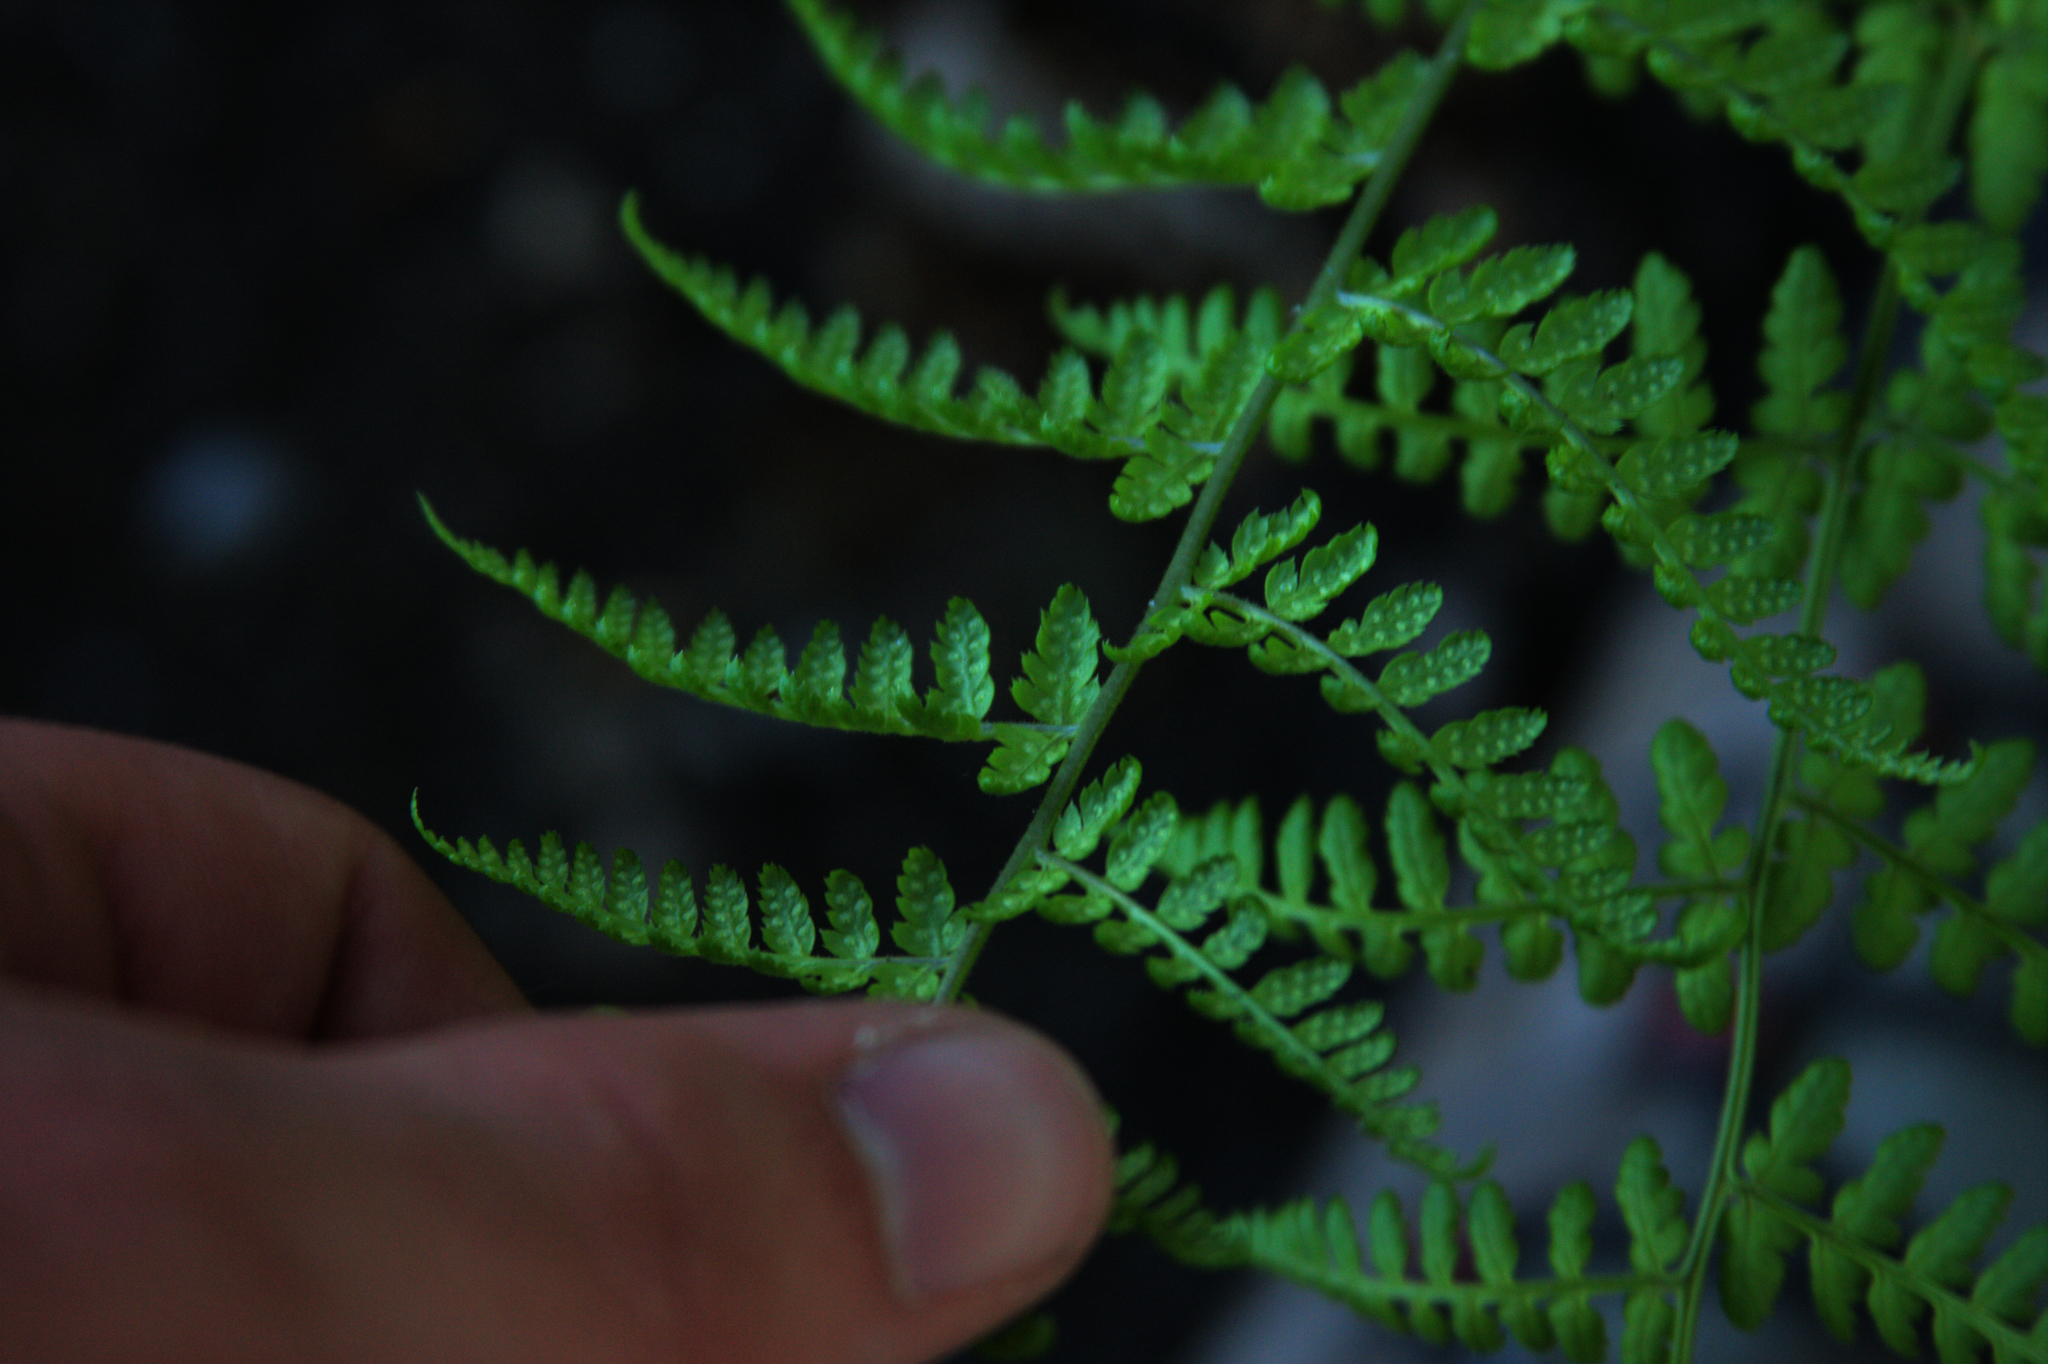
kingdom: Plantae
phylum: Tracheophyta
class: Polypodiopsida
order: Polypodiales
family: Dryopteridaceae
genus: Dryopteris
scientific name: Dryopteris intermedia
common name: Evergreen wood fern
